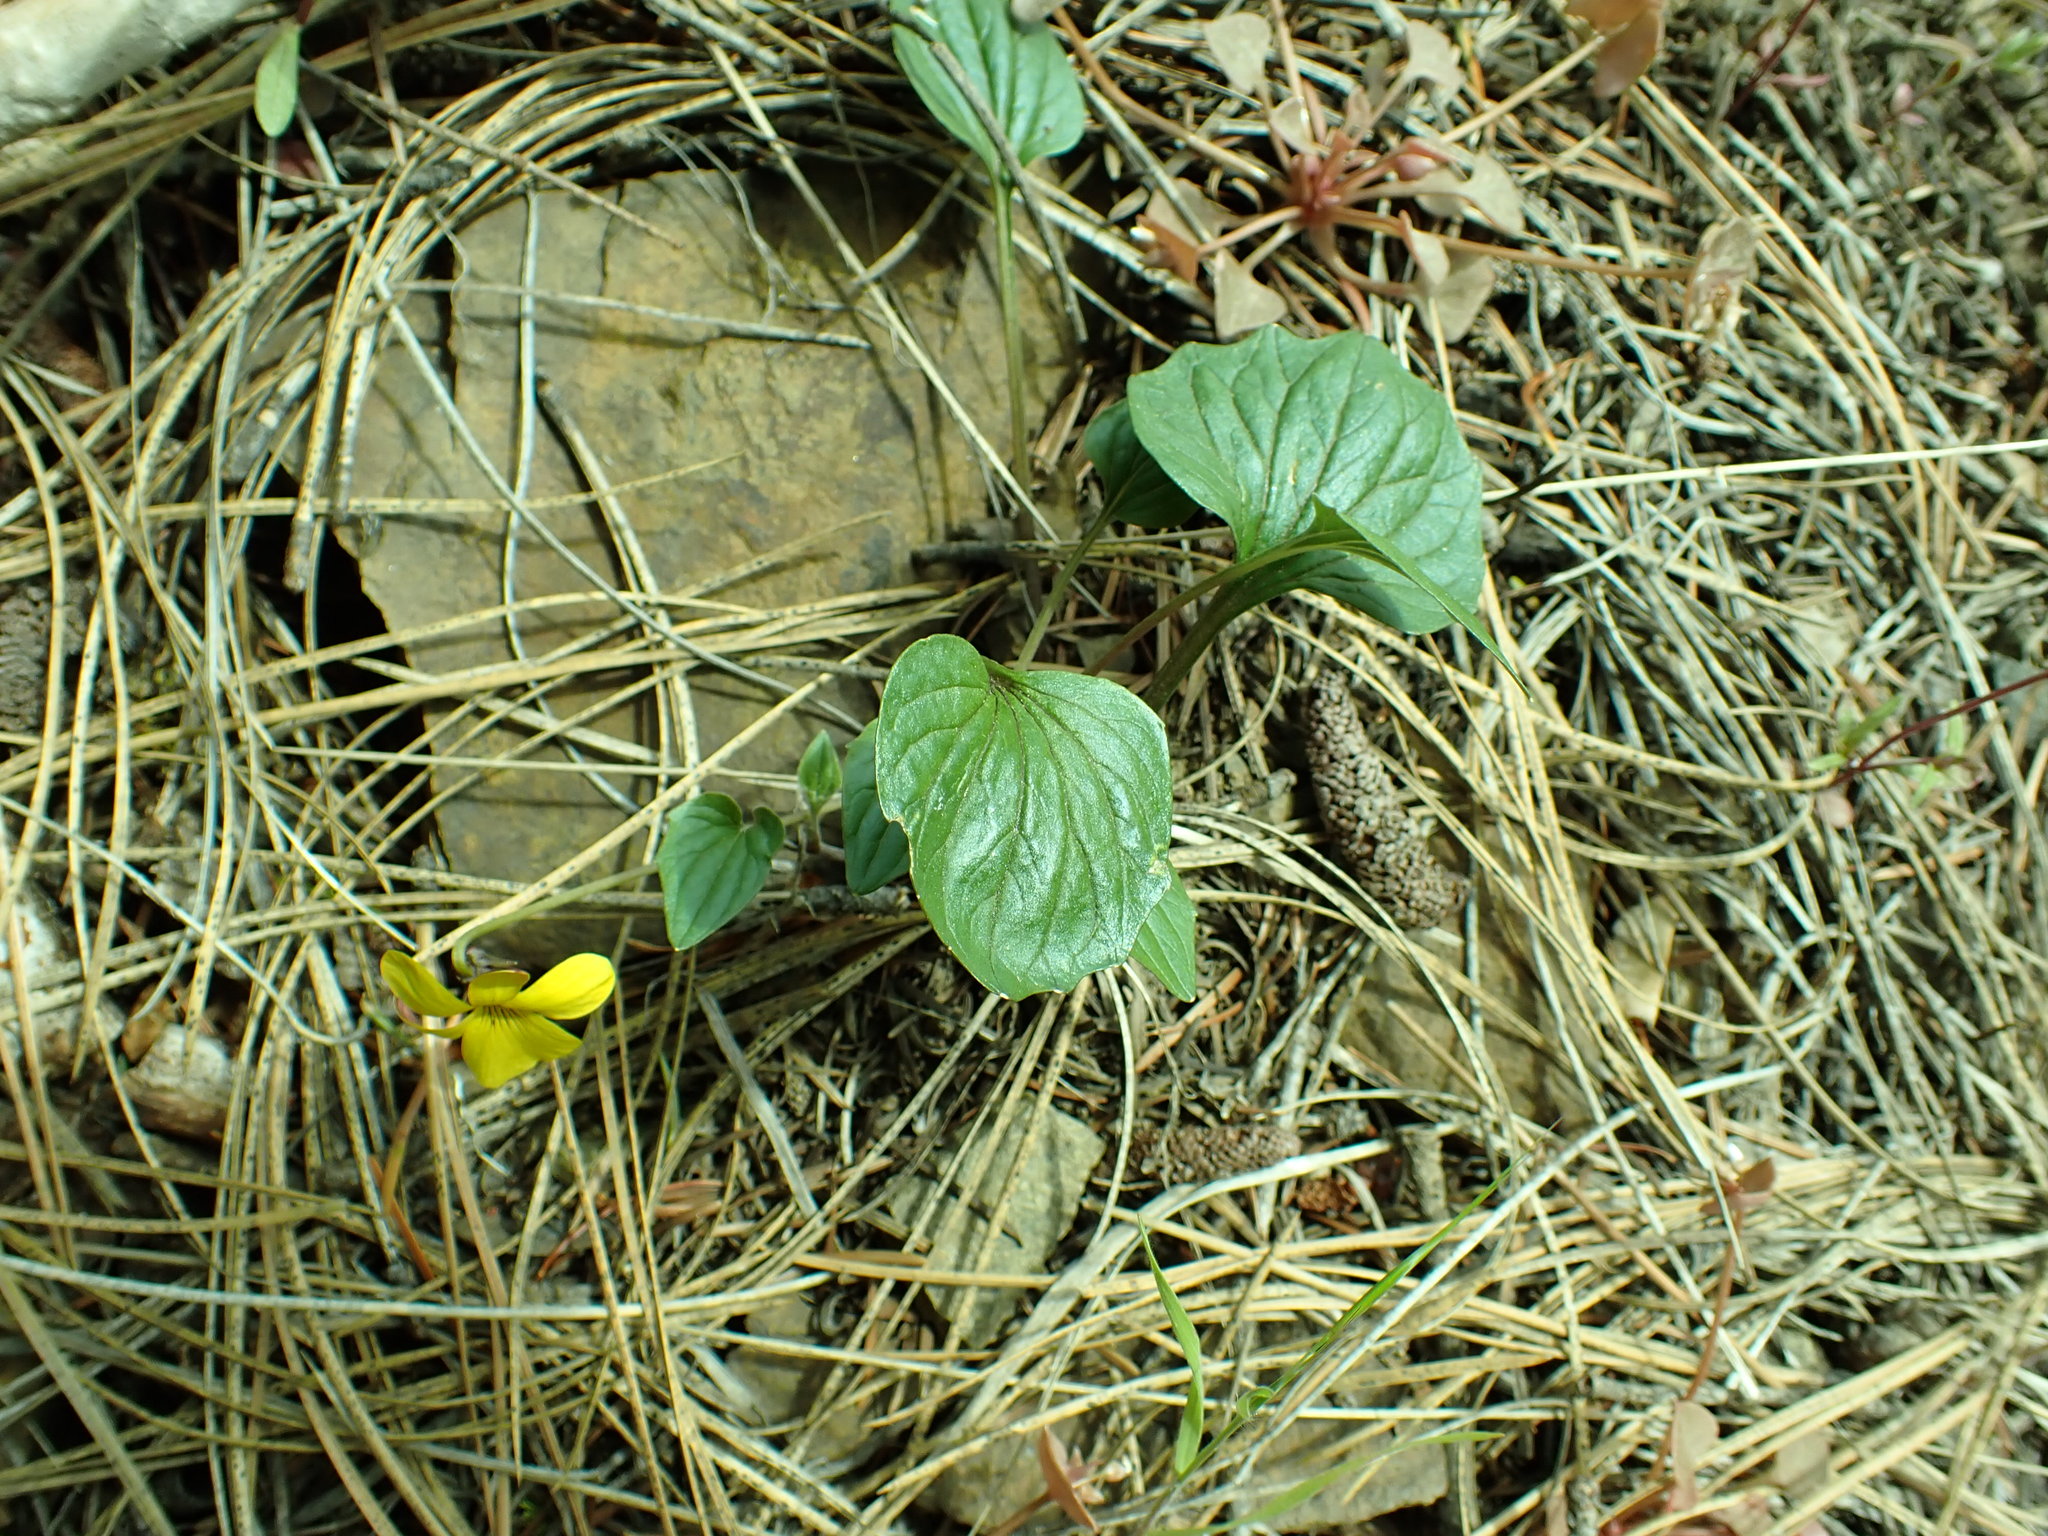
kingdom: Plantae
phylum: Tracheophyta
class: Magnoliopsida
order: Malpighiales
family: Violaceae
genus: Viola
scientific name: Viola purpurea
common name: Pine violet
